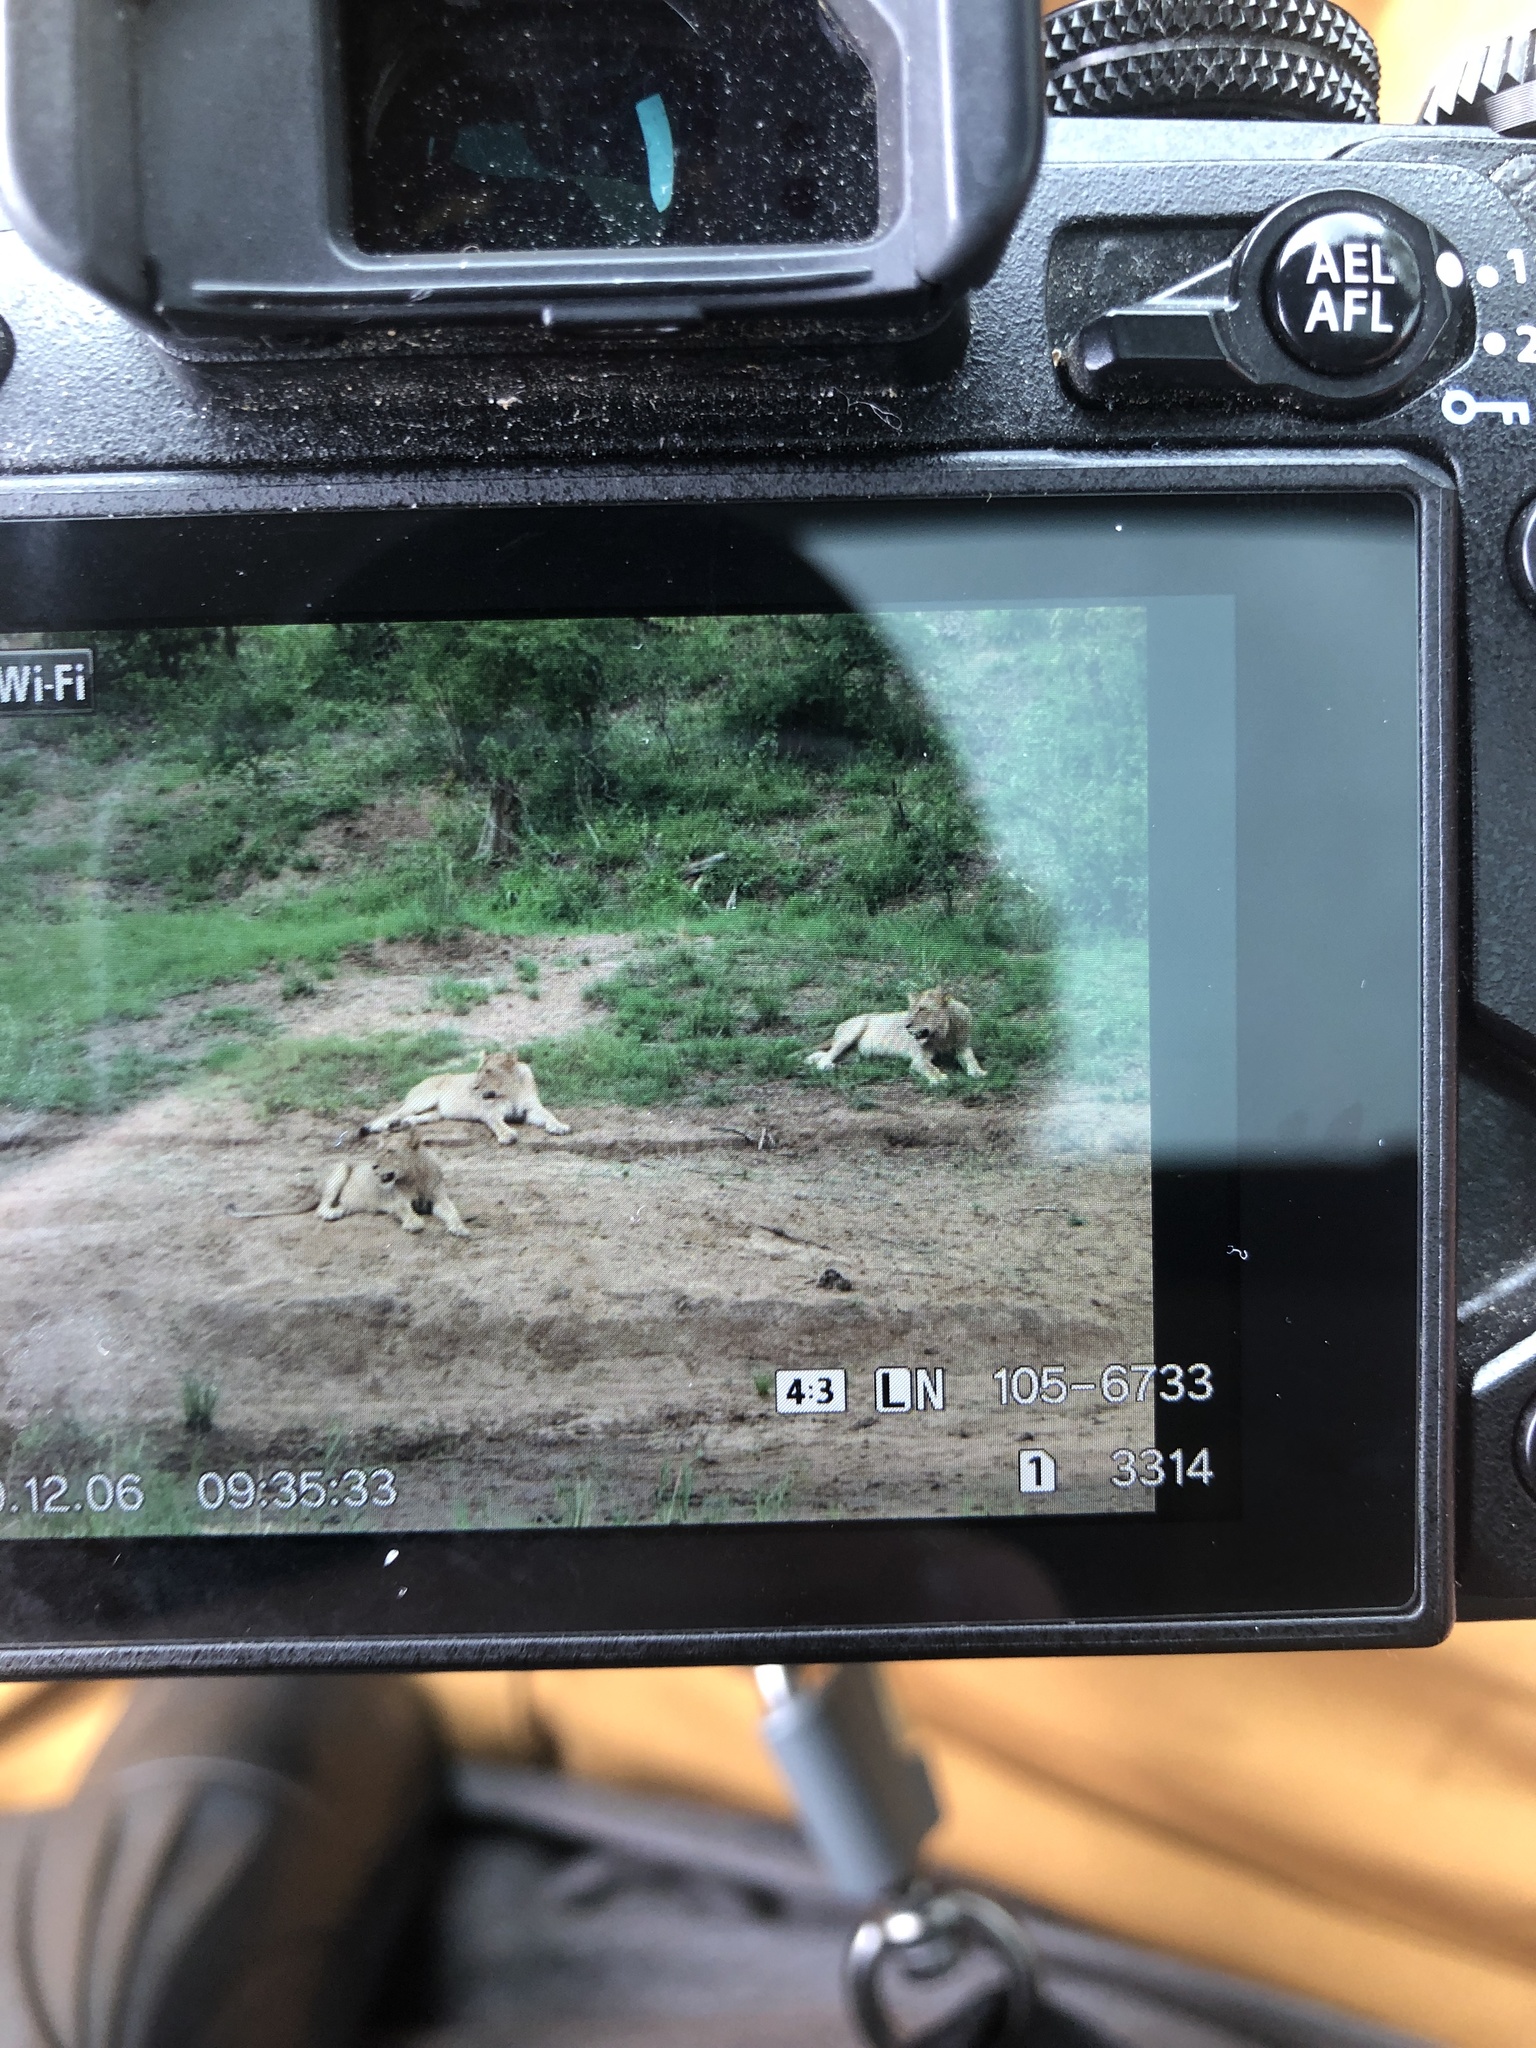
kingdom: Animalia
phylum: Chordata
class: Mammalia
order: Carnivora
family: Felidae
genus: Panthera
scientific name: Panthera leo
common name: Lion
